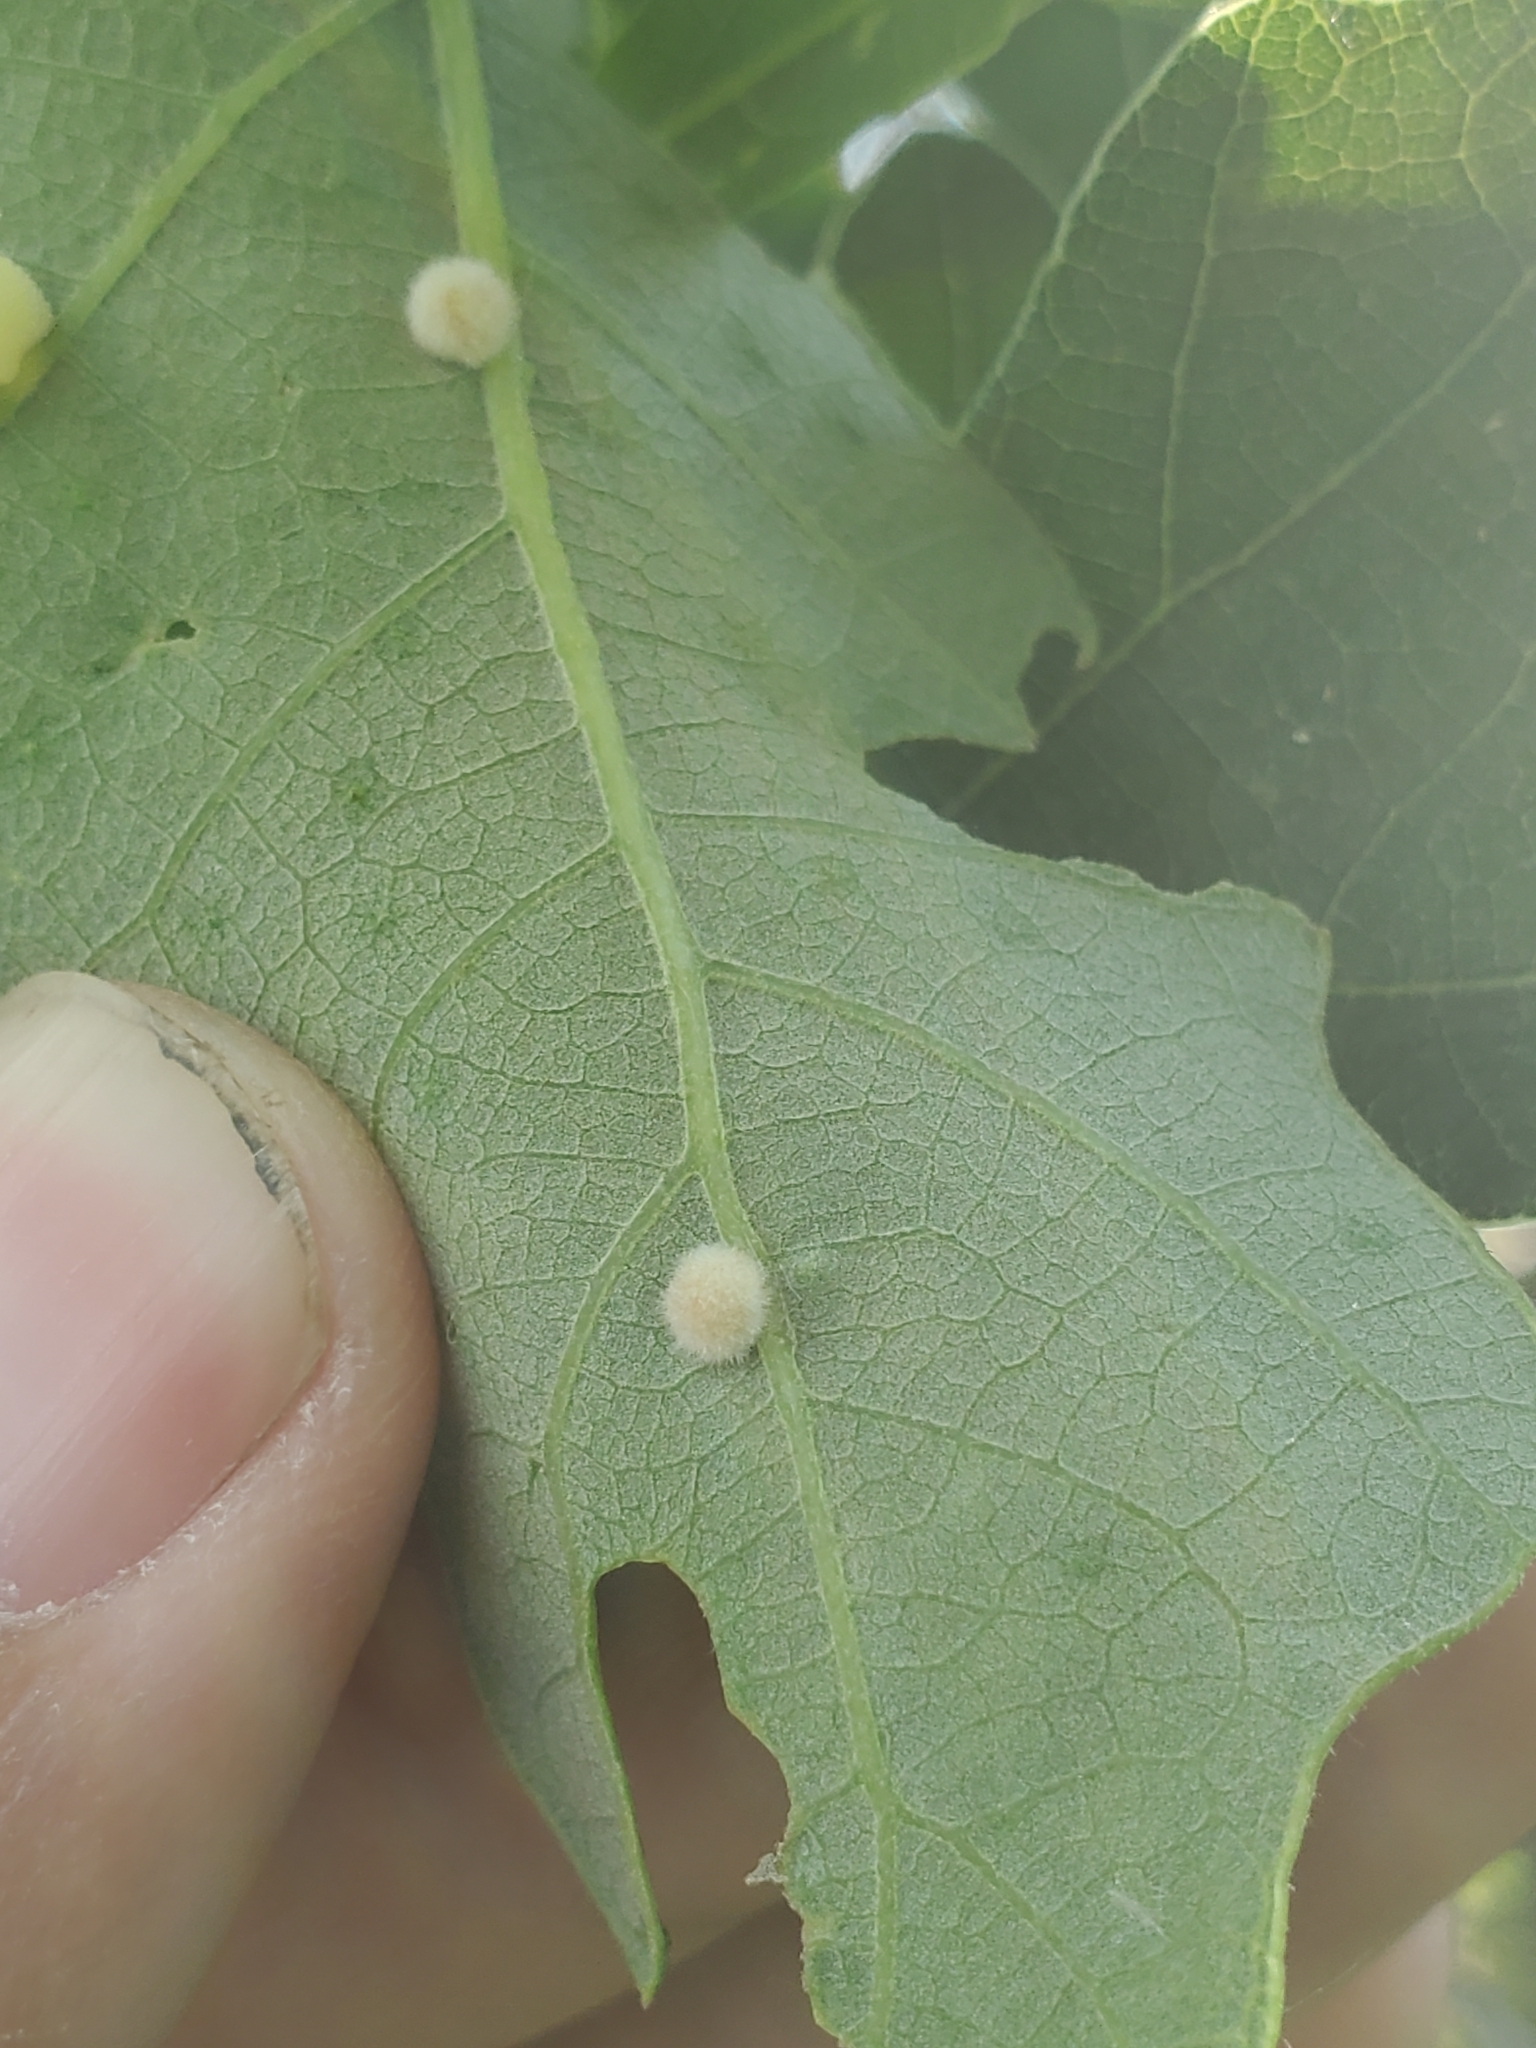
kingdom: Animalia
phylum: Arthropoda
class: Insecta
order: Hymenoptera
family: Cynipidae
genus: Philonix
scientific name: Philonix fulvicollis
